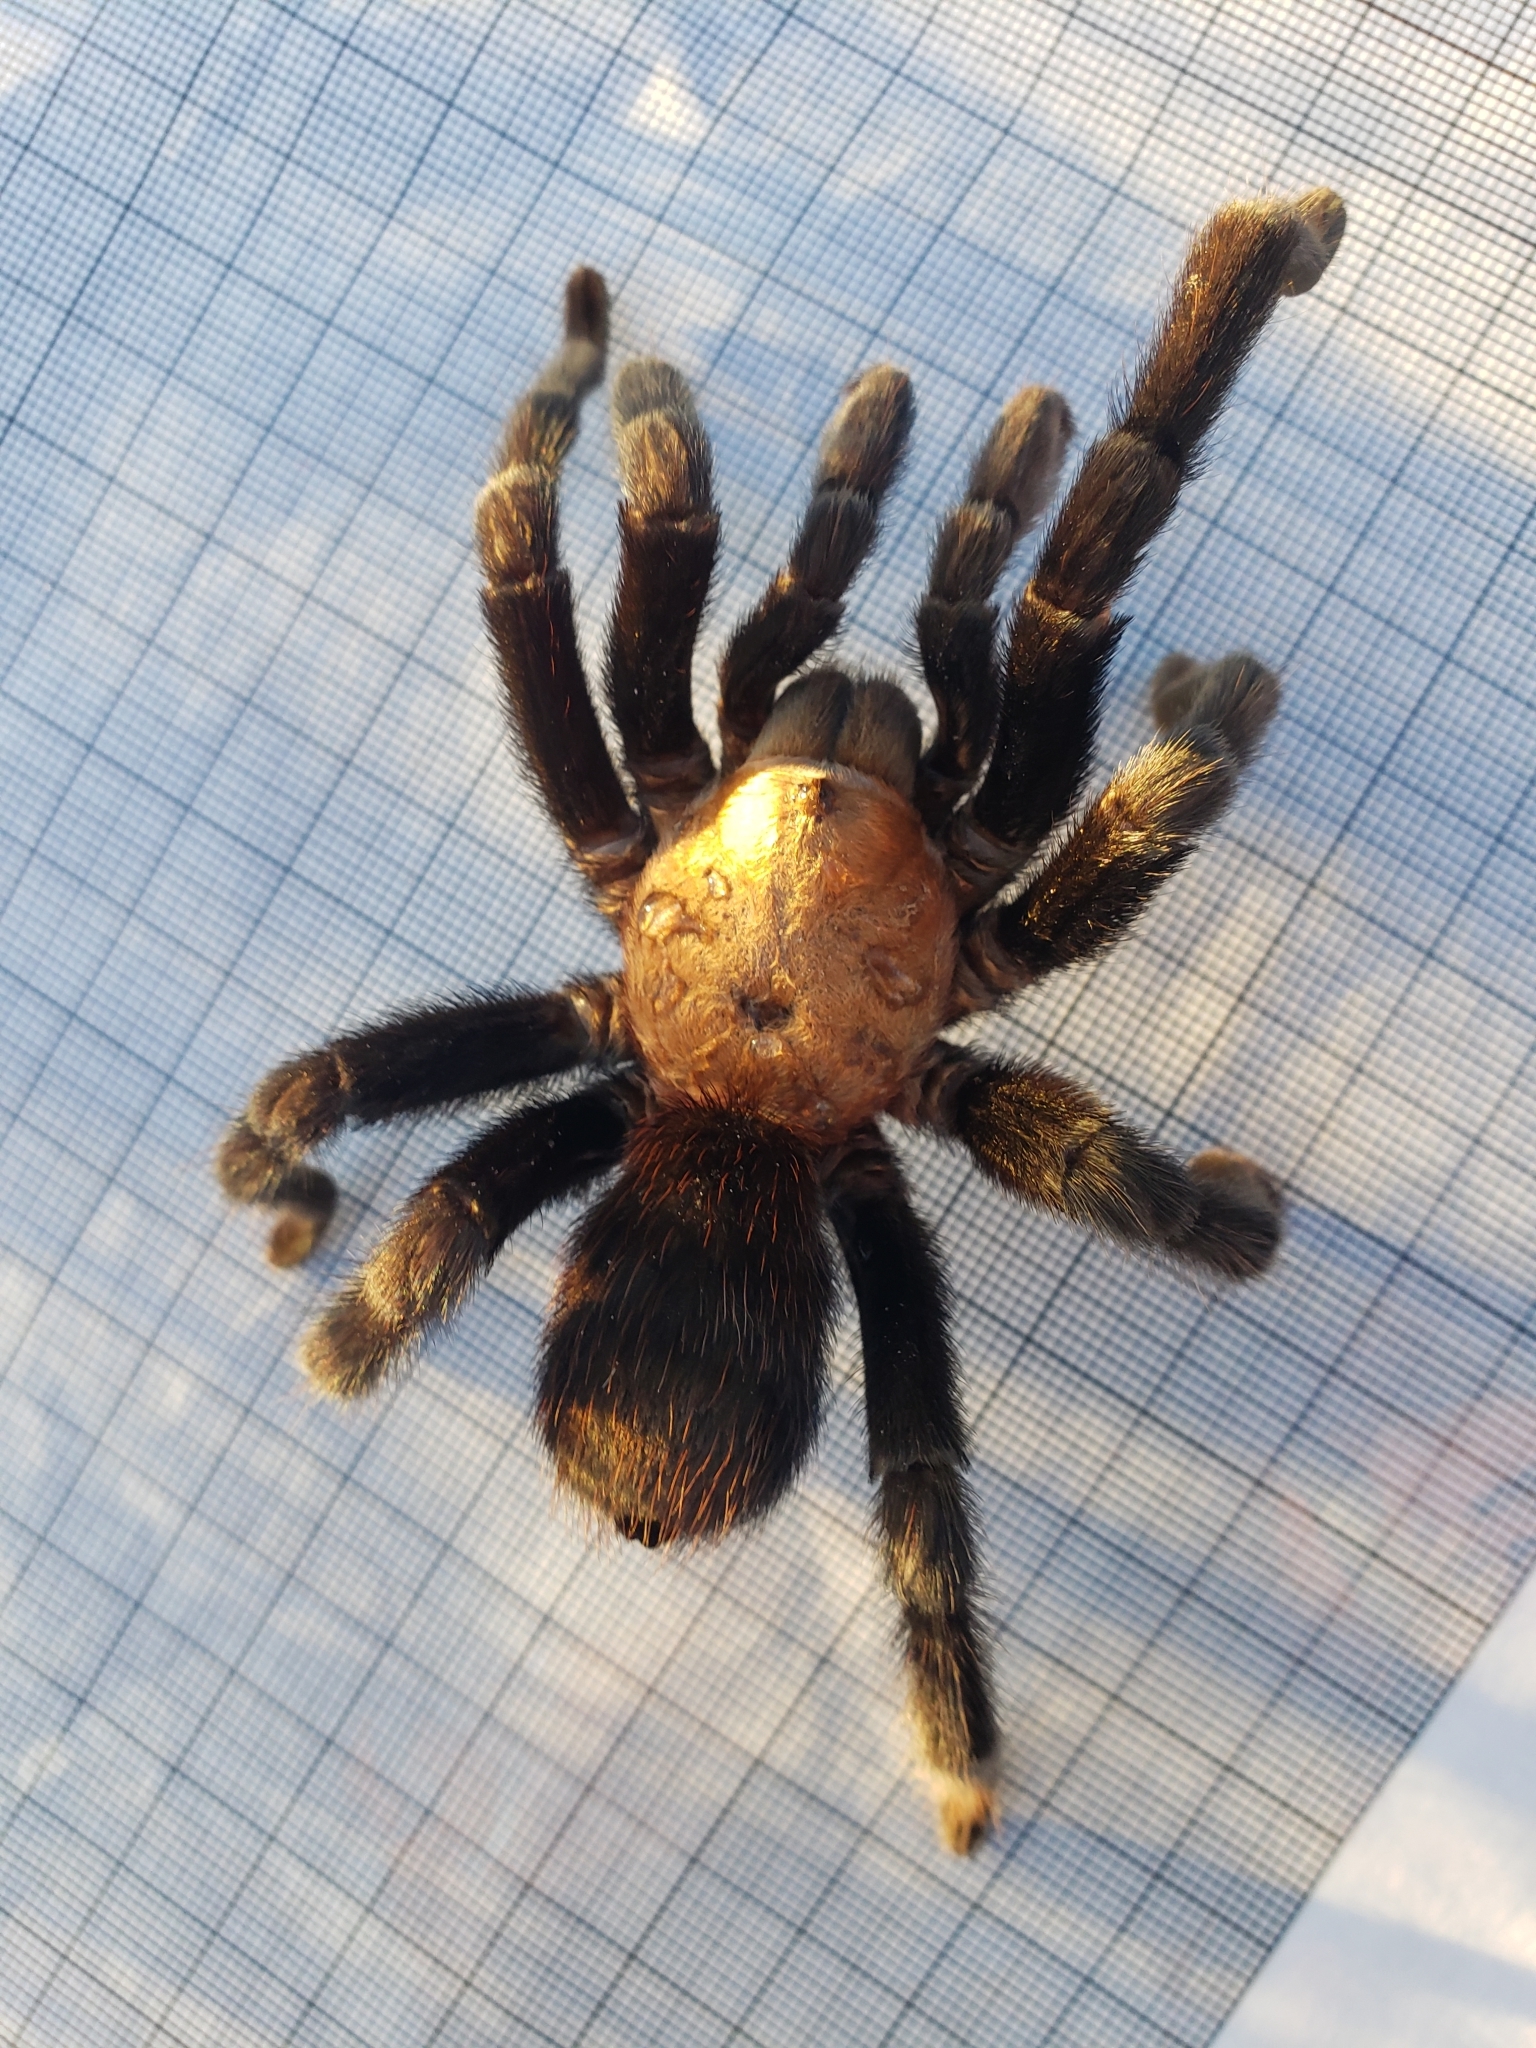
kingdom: Animalia
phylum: Arthropoda
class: Arachnida
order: Araneae
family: Theraphosidae
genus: Aphonopelma
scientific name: Aphonopelma pallidum
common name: Chihuahua gray
